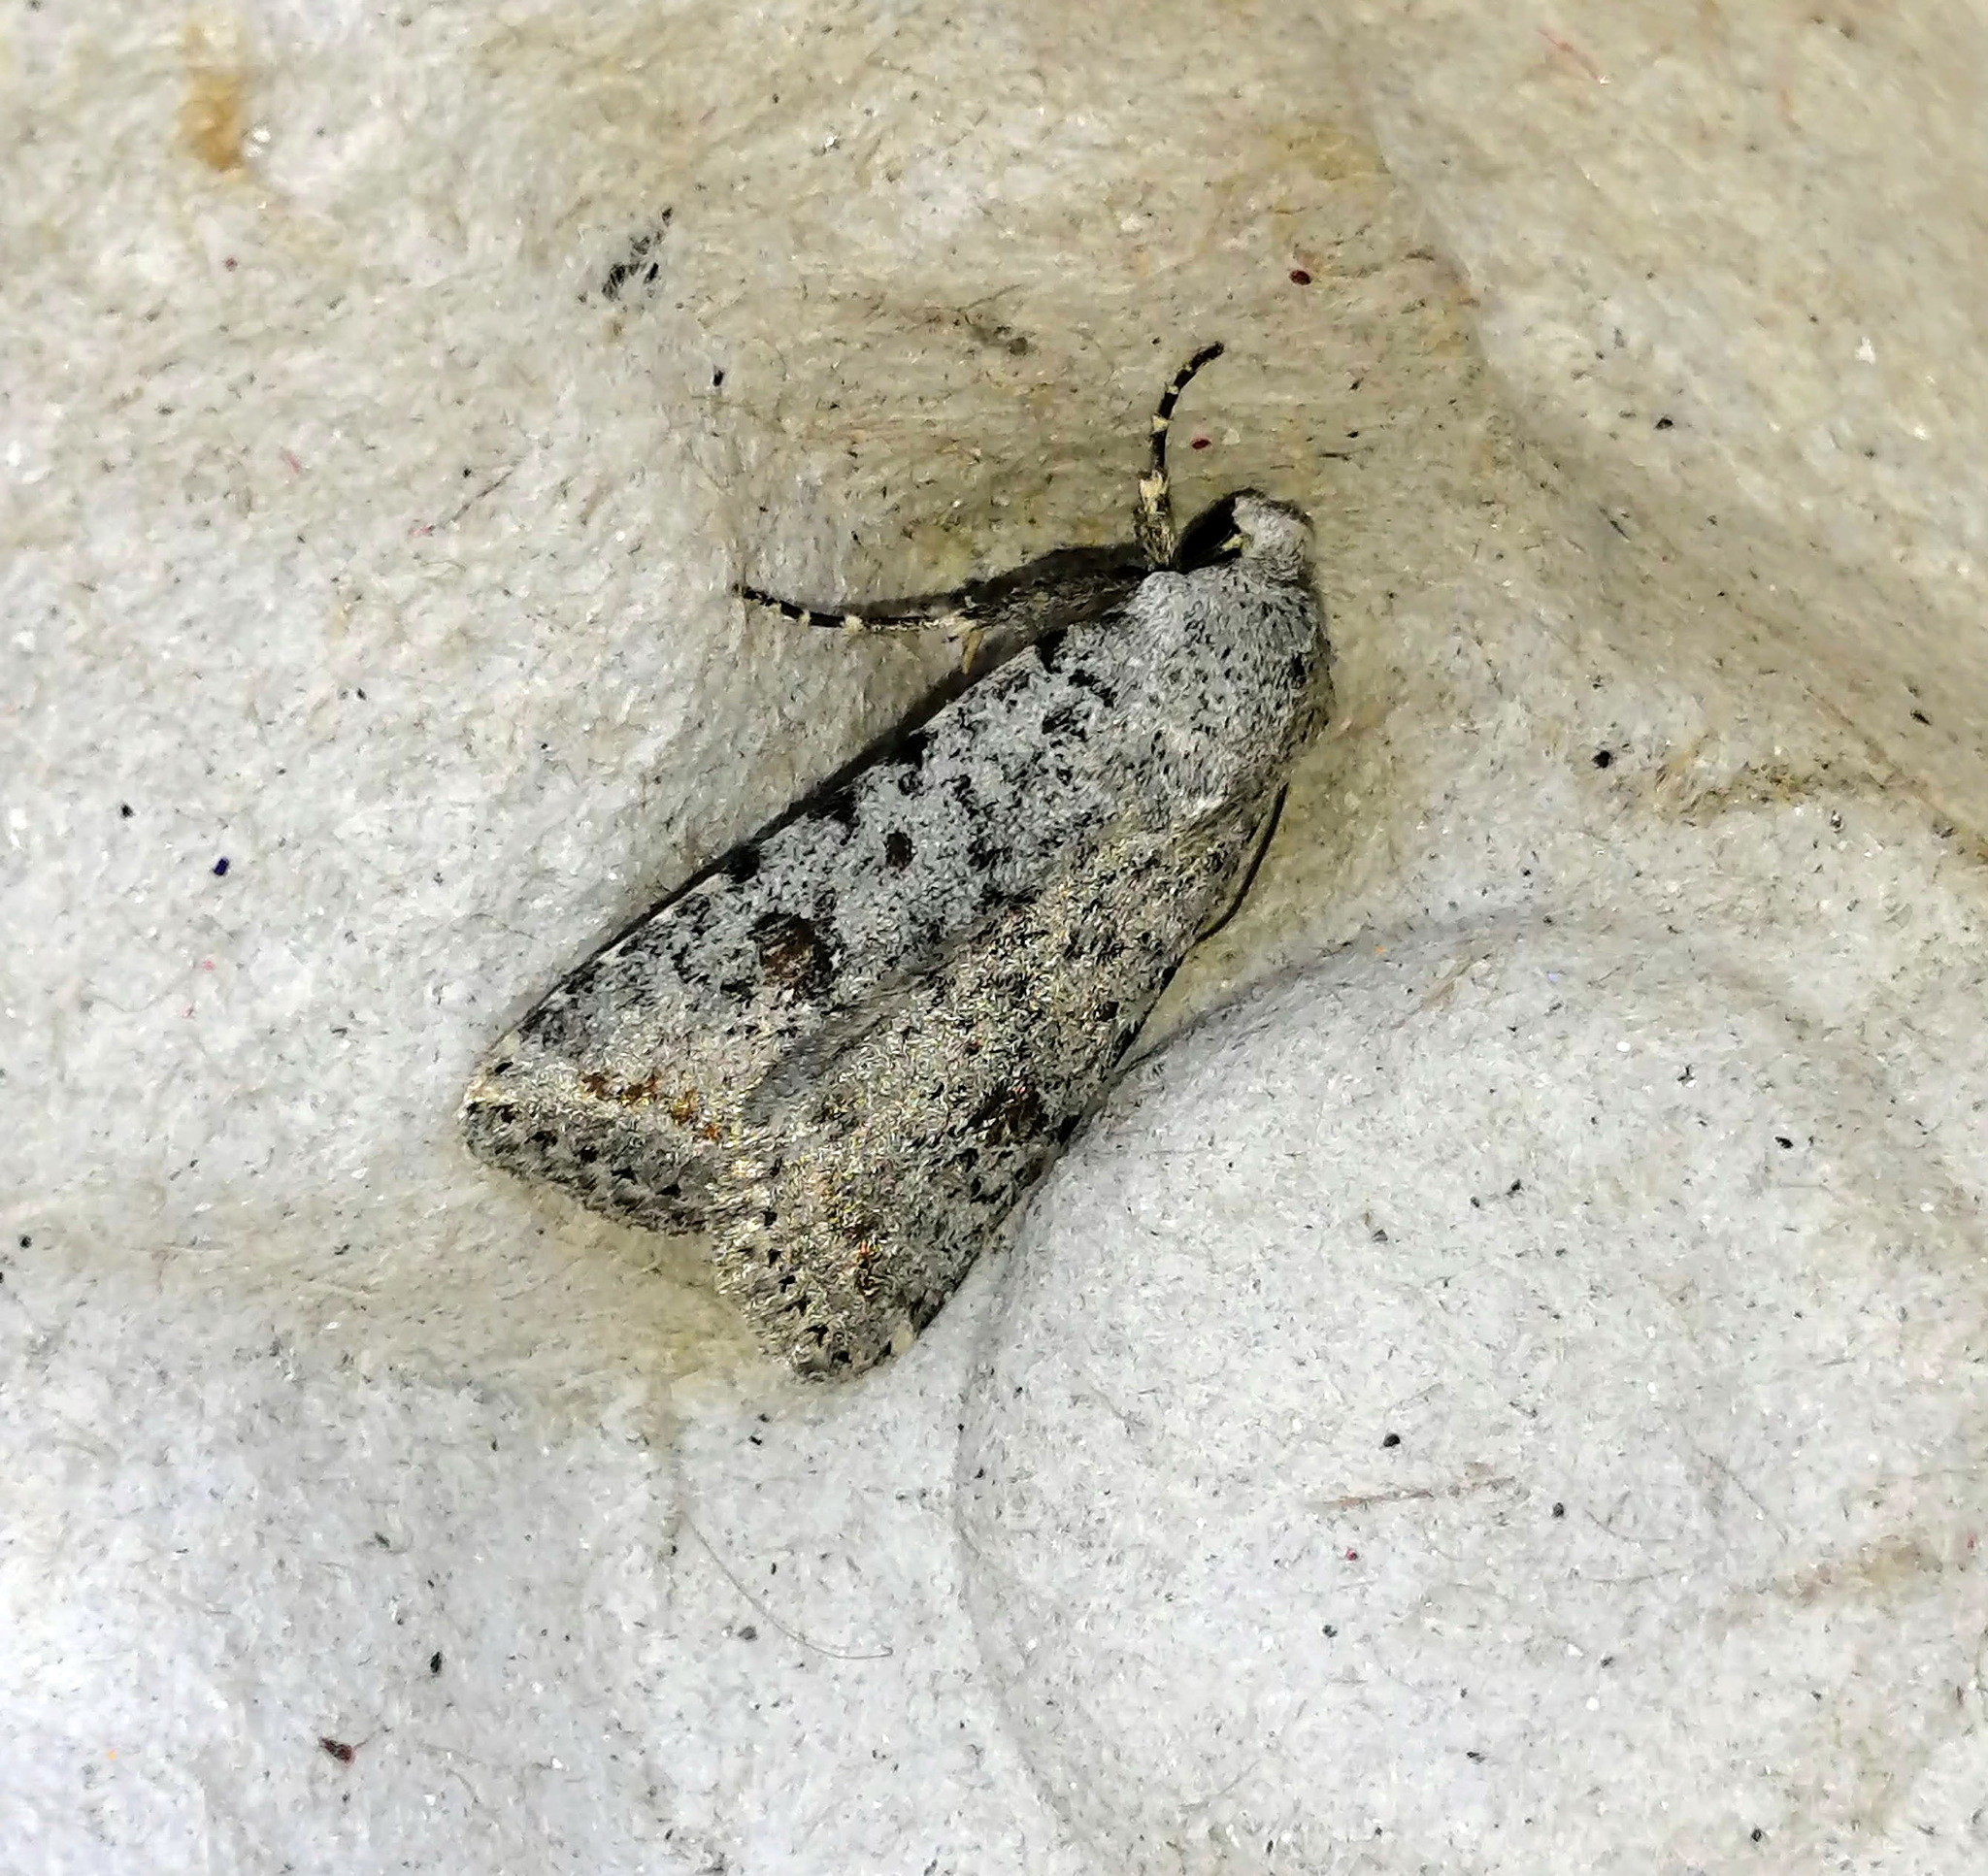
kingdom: Animalia
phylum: Arthropoda
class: Insecta
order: Lepidoptera
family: Noctuidae
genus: Caradrina
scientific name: Caradrina multifera
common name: Speckled rustic
